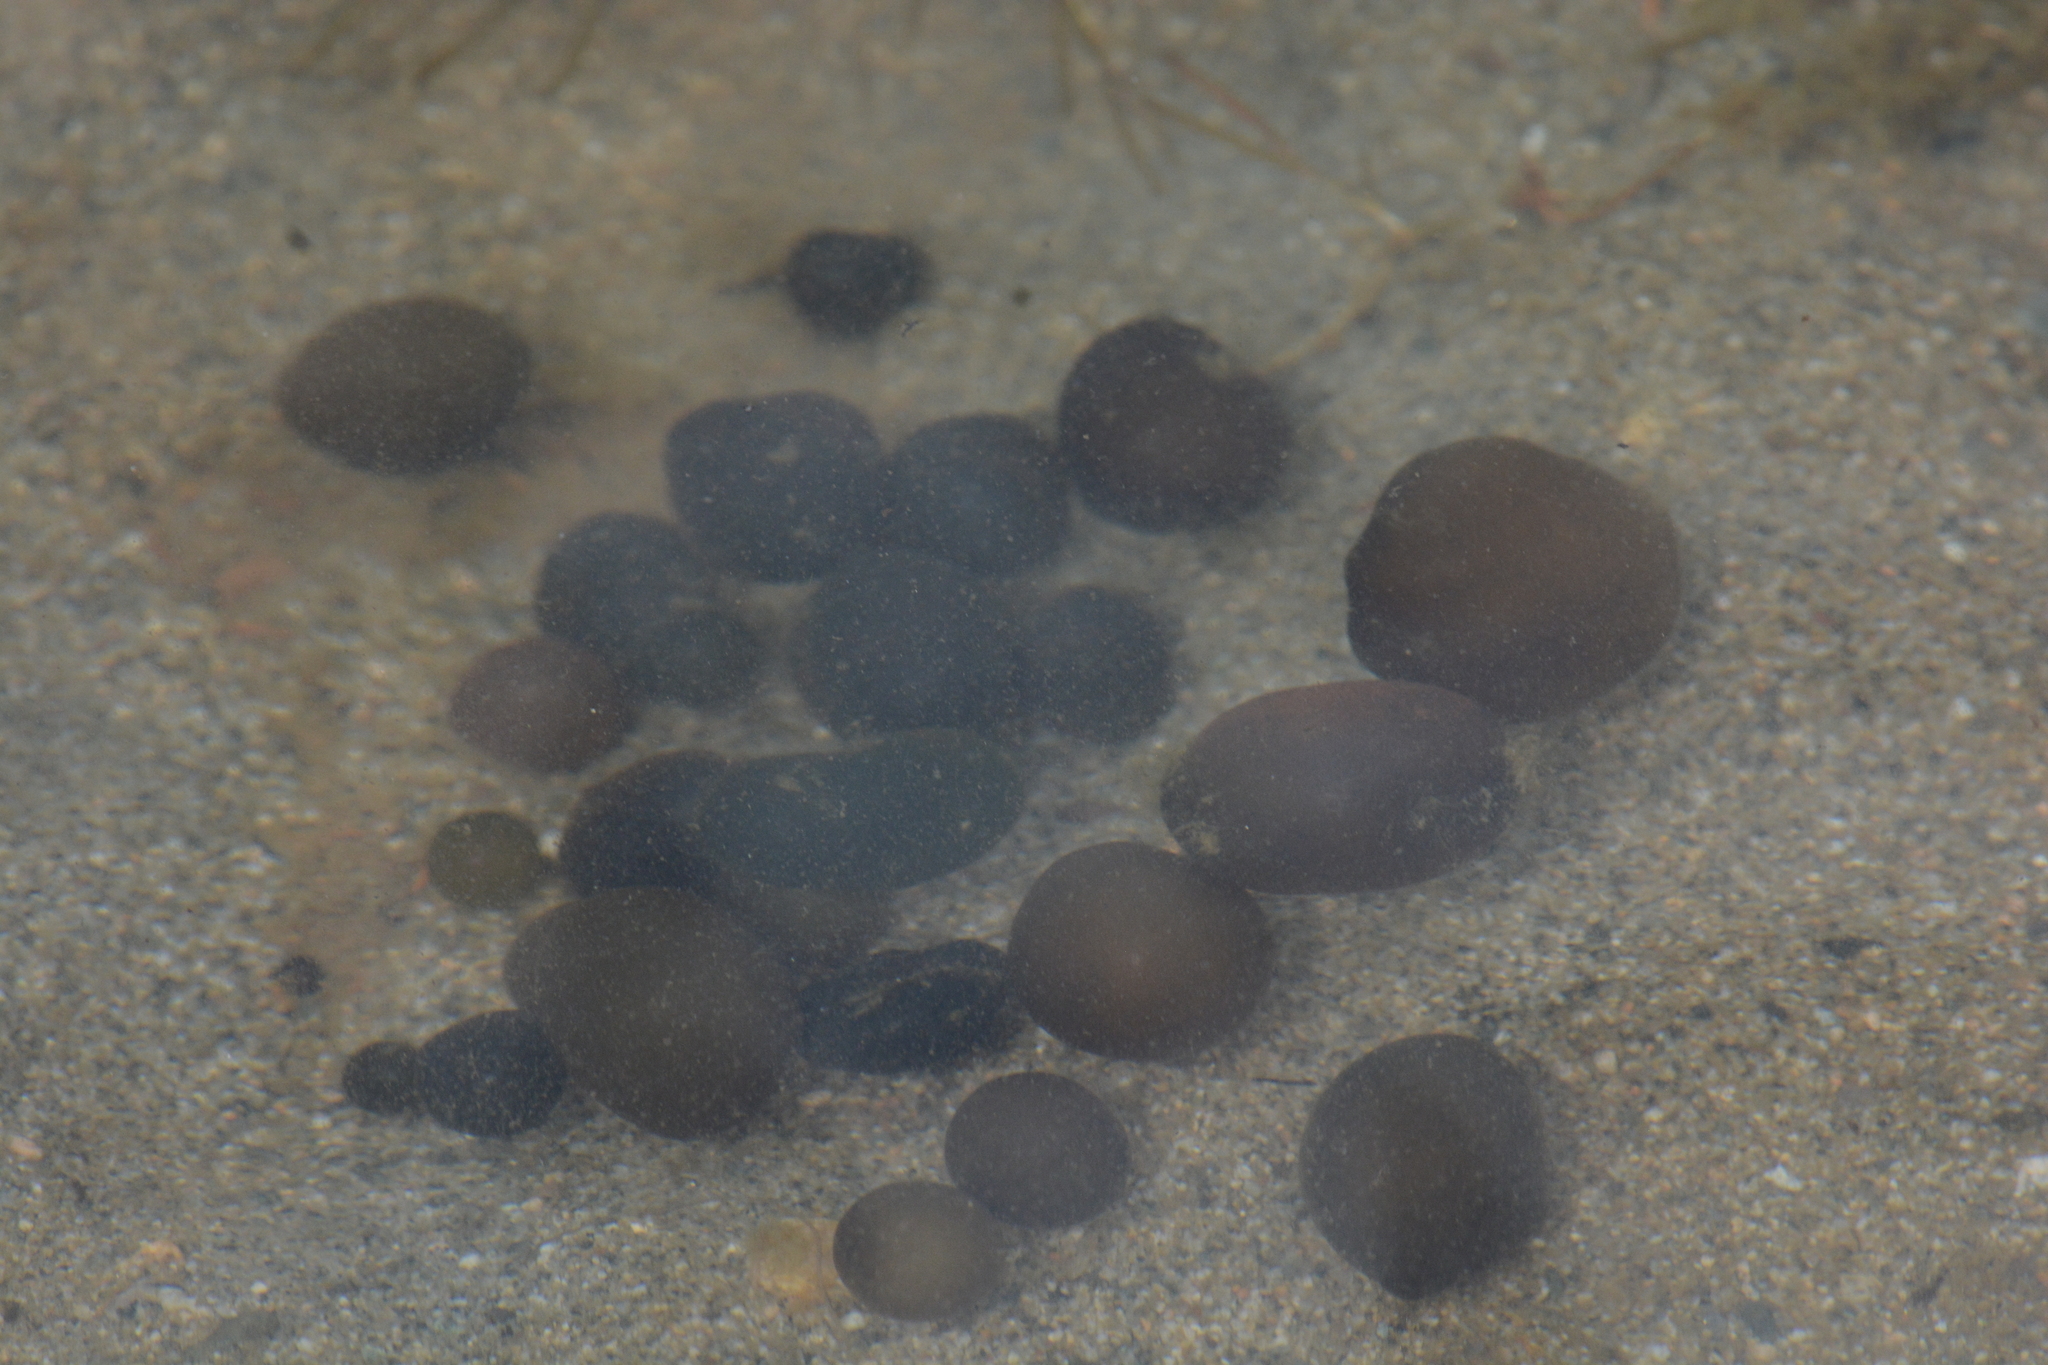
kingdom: Bacteria
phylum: Cyanobacteria
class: Cyanobacteriia
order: Cyanobacteriales
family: Nostocaceae
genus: Nostoc
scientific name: Nostoc pruniforme
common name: Mare's eggs
